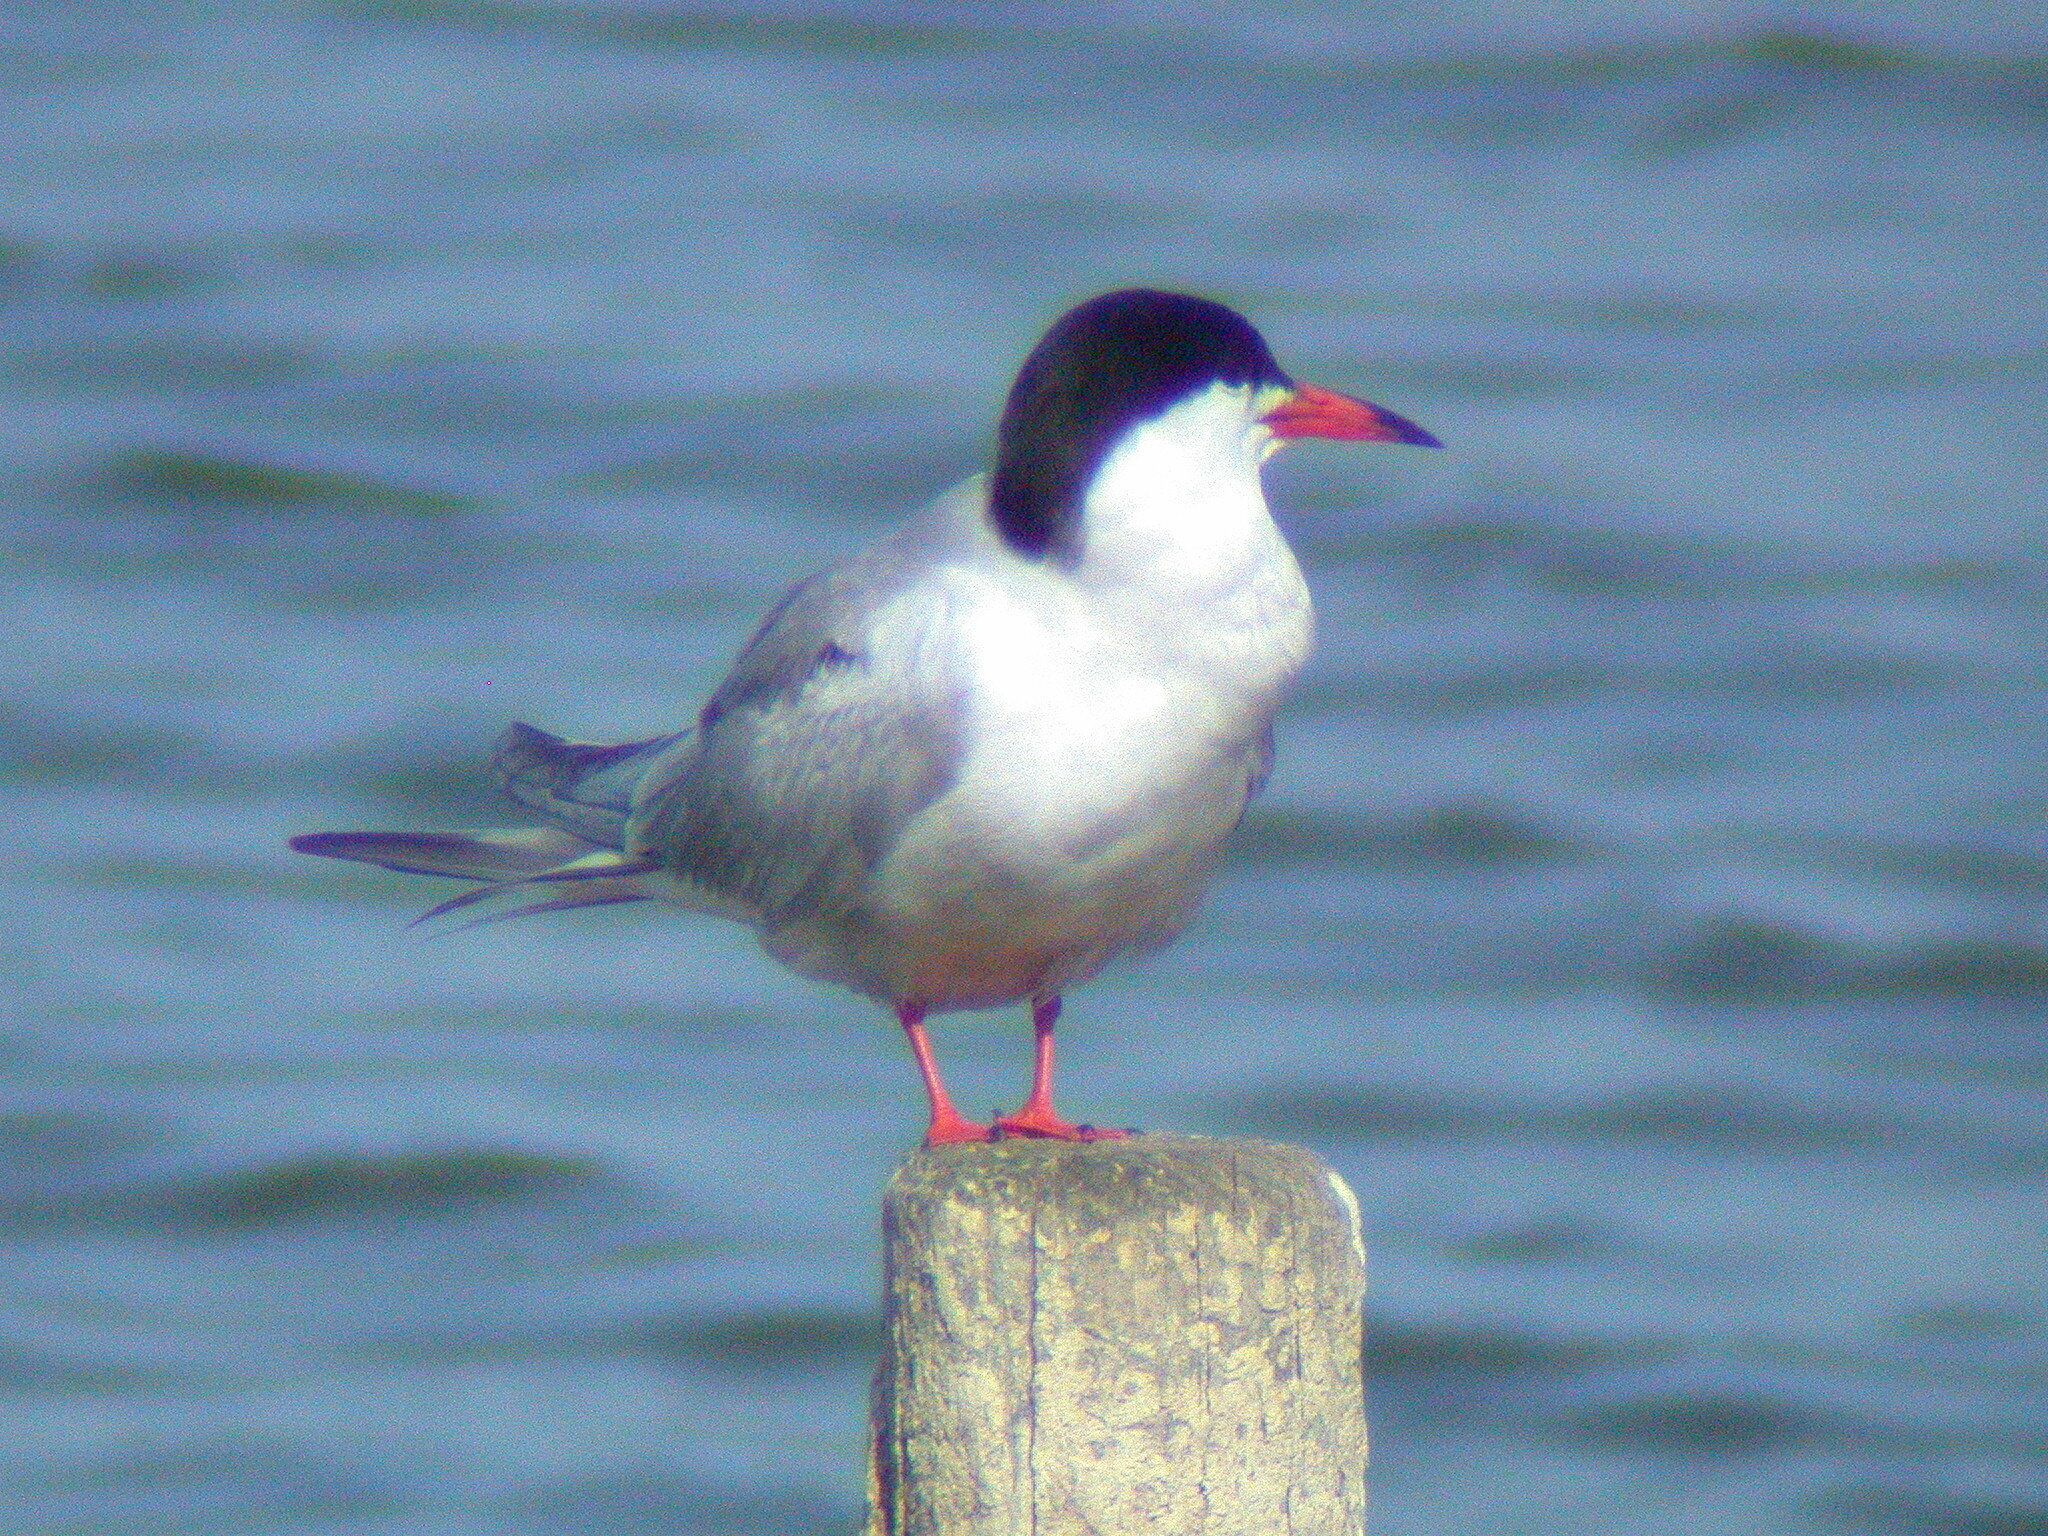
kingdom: Animalia
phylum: Chordata
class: Aves
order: Charadriiformes
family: Laridae
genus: Sterna
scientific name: Sterna hirundo
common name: Common tern
